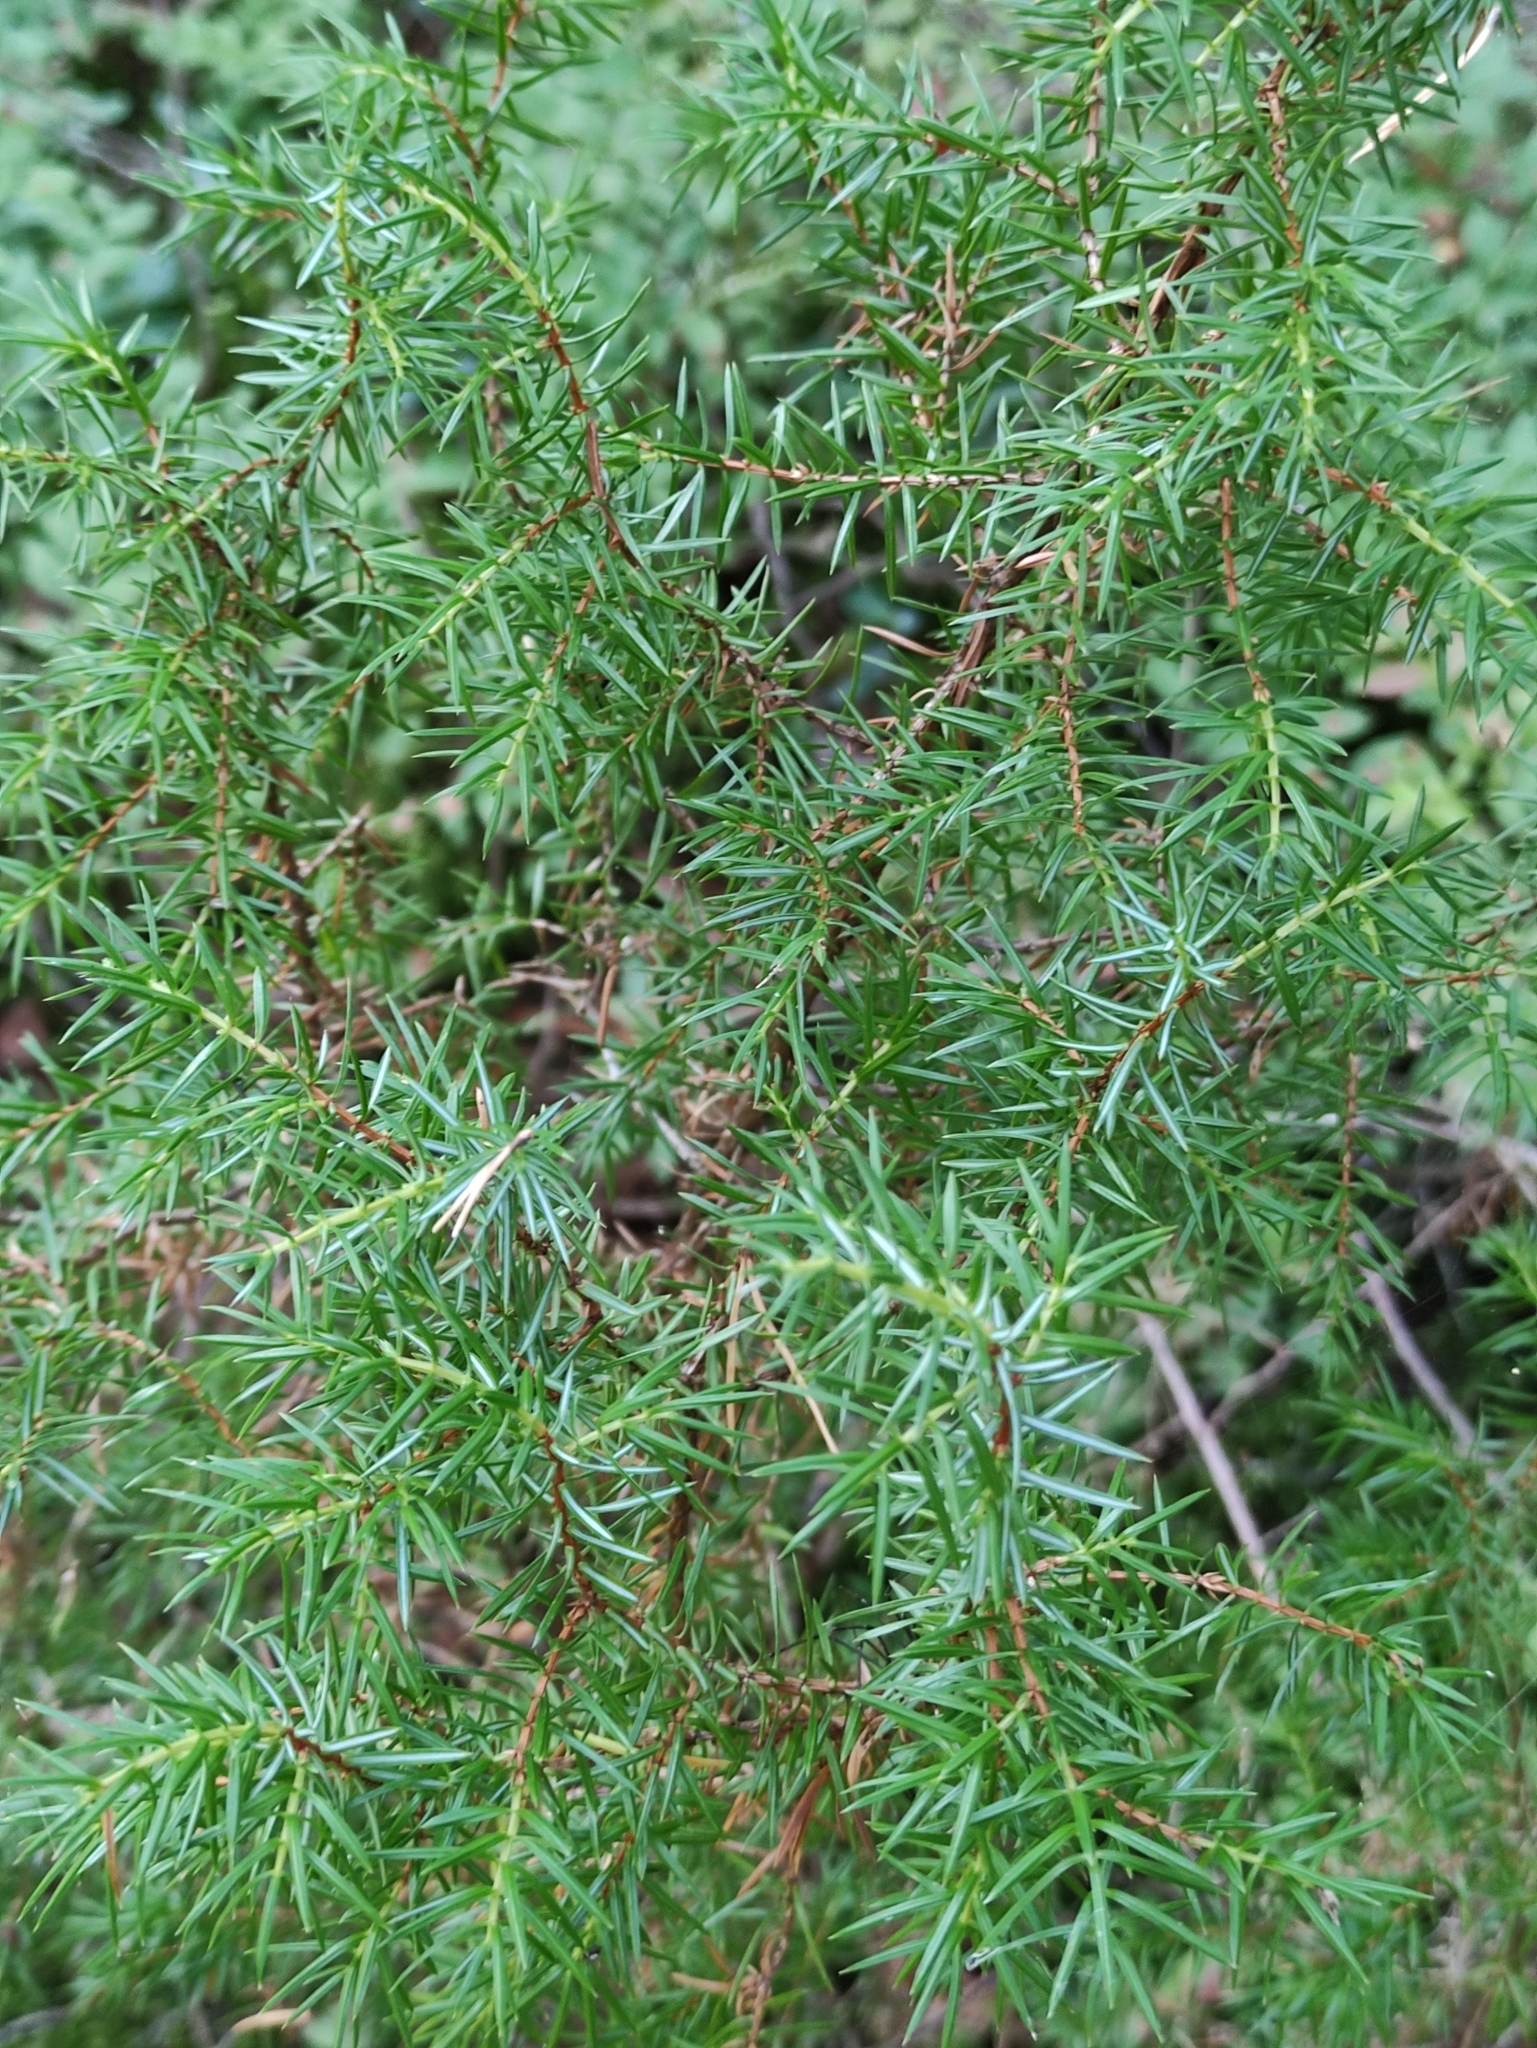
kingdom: Plantae
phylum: Tracheophyta
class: Pinopsida
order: Pinales
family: Cupressaceae
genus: Juniperus
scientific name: Juniperus communis
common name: Common juniper
